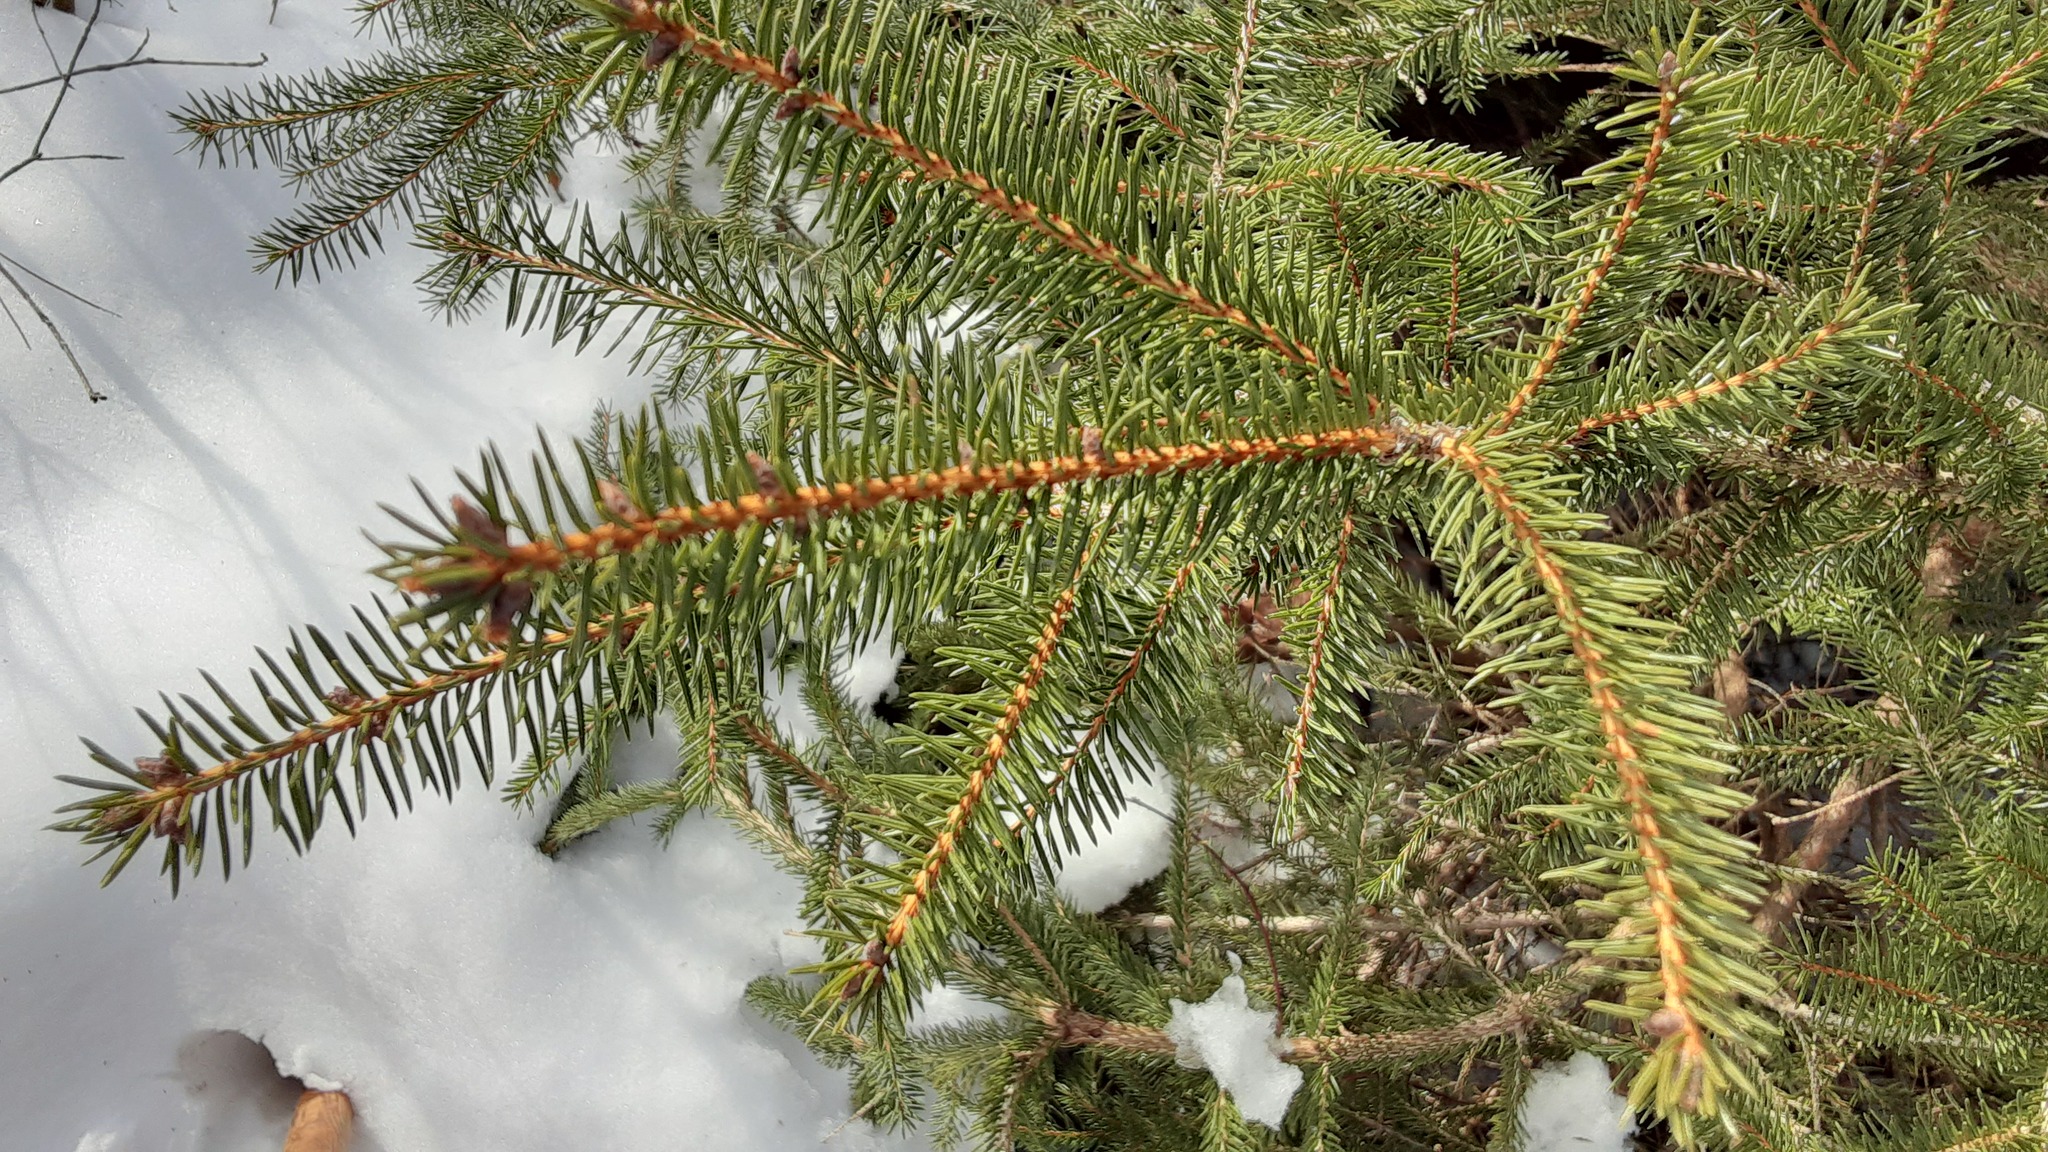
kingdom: Plantae
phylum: Tracheophyta
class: Pinopsida
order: Pinales
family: Pinaceae
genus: Picea
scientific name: Picea abies
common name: Norway spruce
